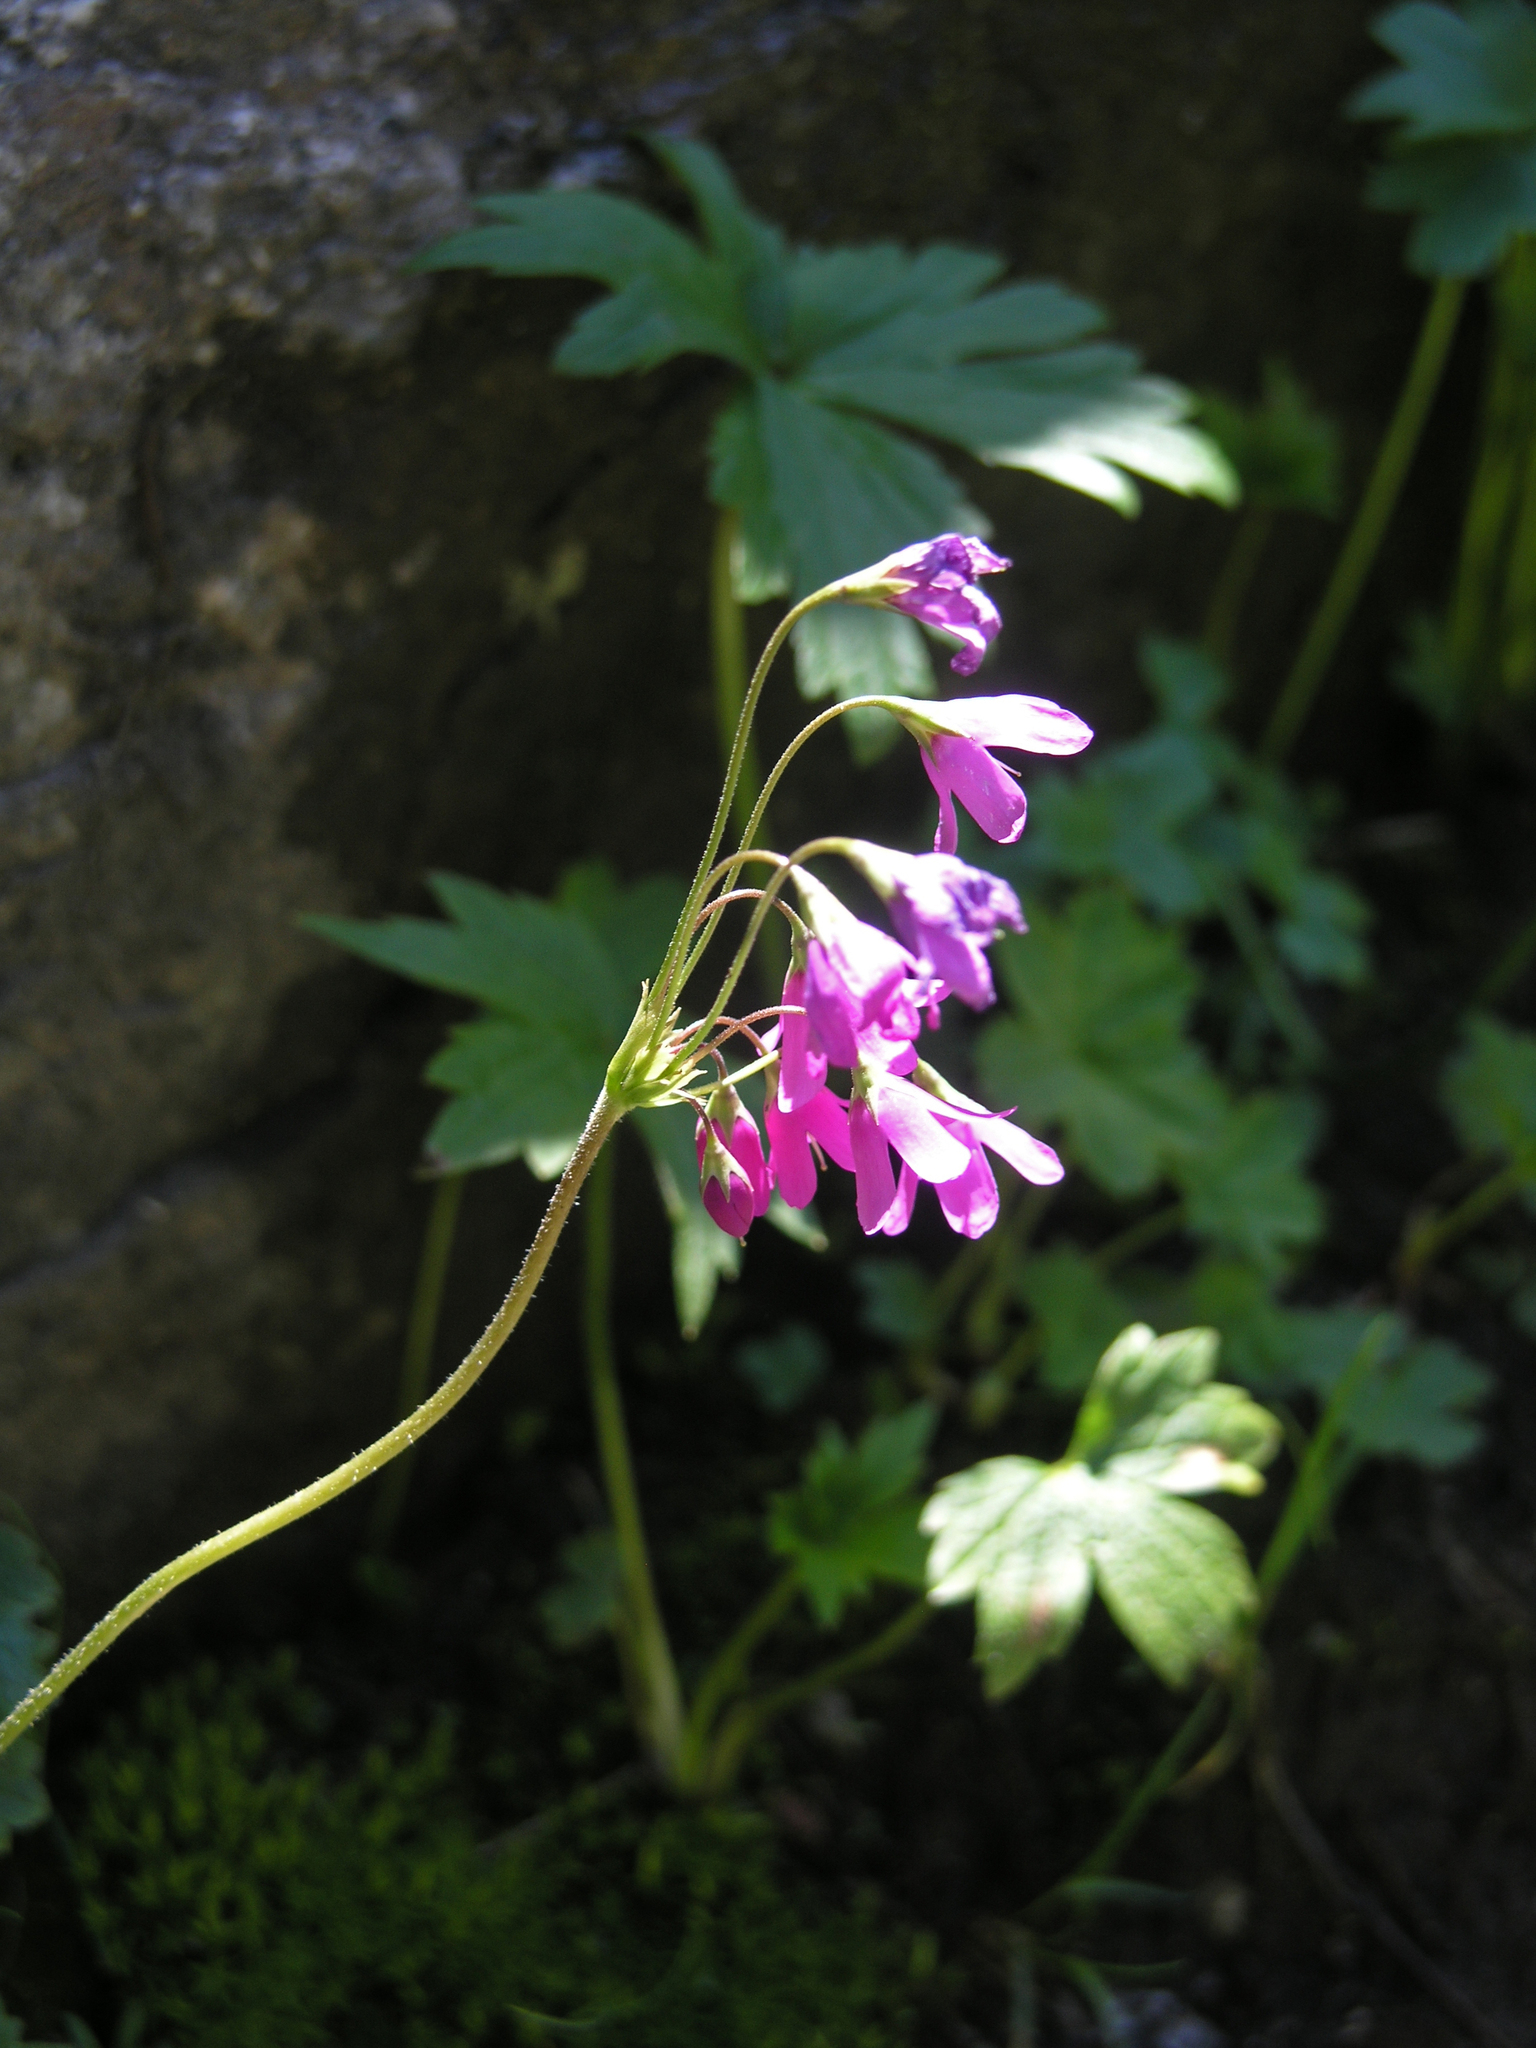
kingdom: Plantae
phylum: Tracheophyta
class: Magnoliopsida
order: Ericales
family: Primulaceae
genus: Primula
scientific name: Primula matthioli
